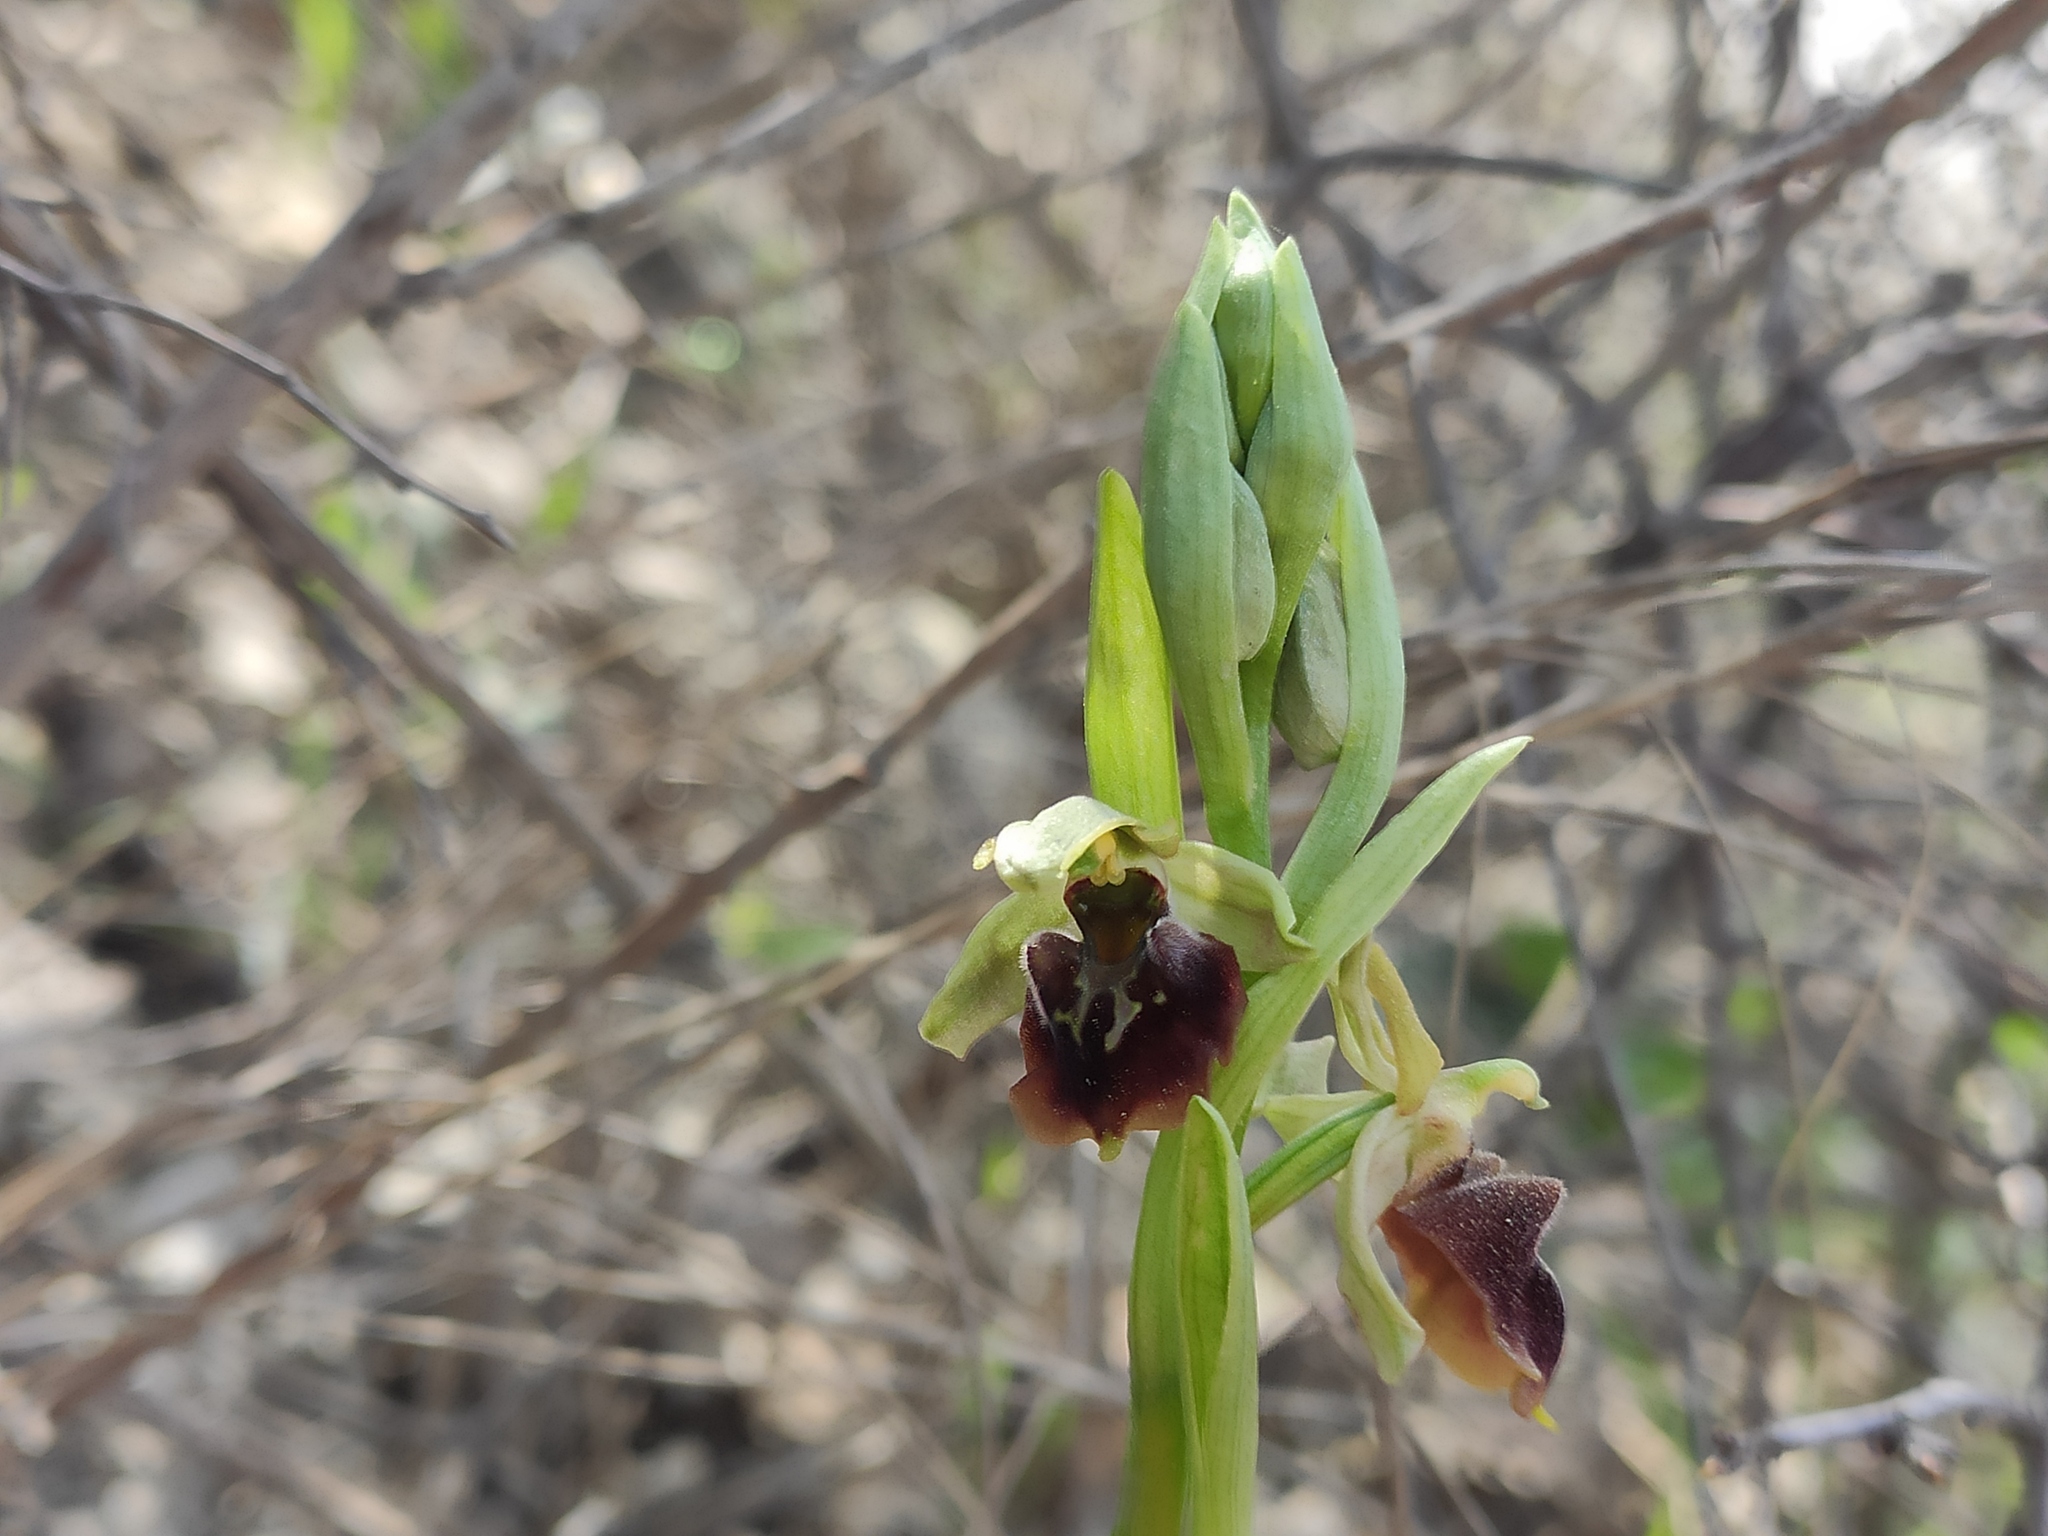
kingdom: Plantae
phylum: Tracheophyta
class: Liliopsida
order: Asparagales
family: Orchidaceae
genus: Ophrys
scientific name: Ophrys sphegodes
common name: Early spider-orchid
